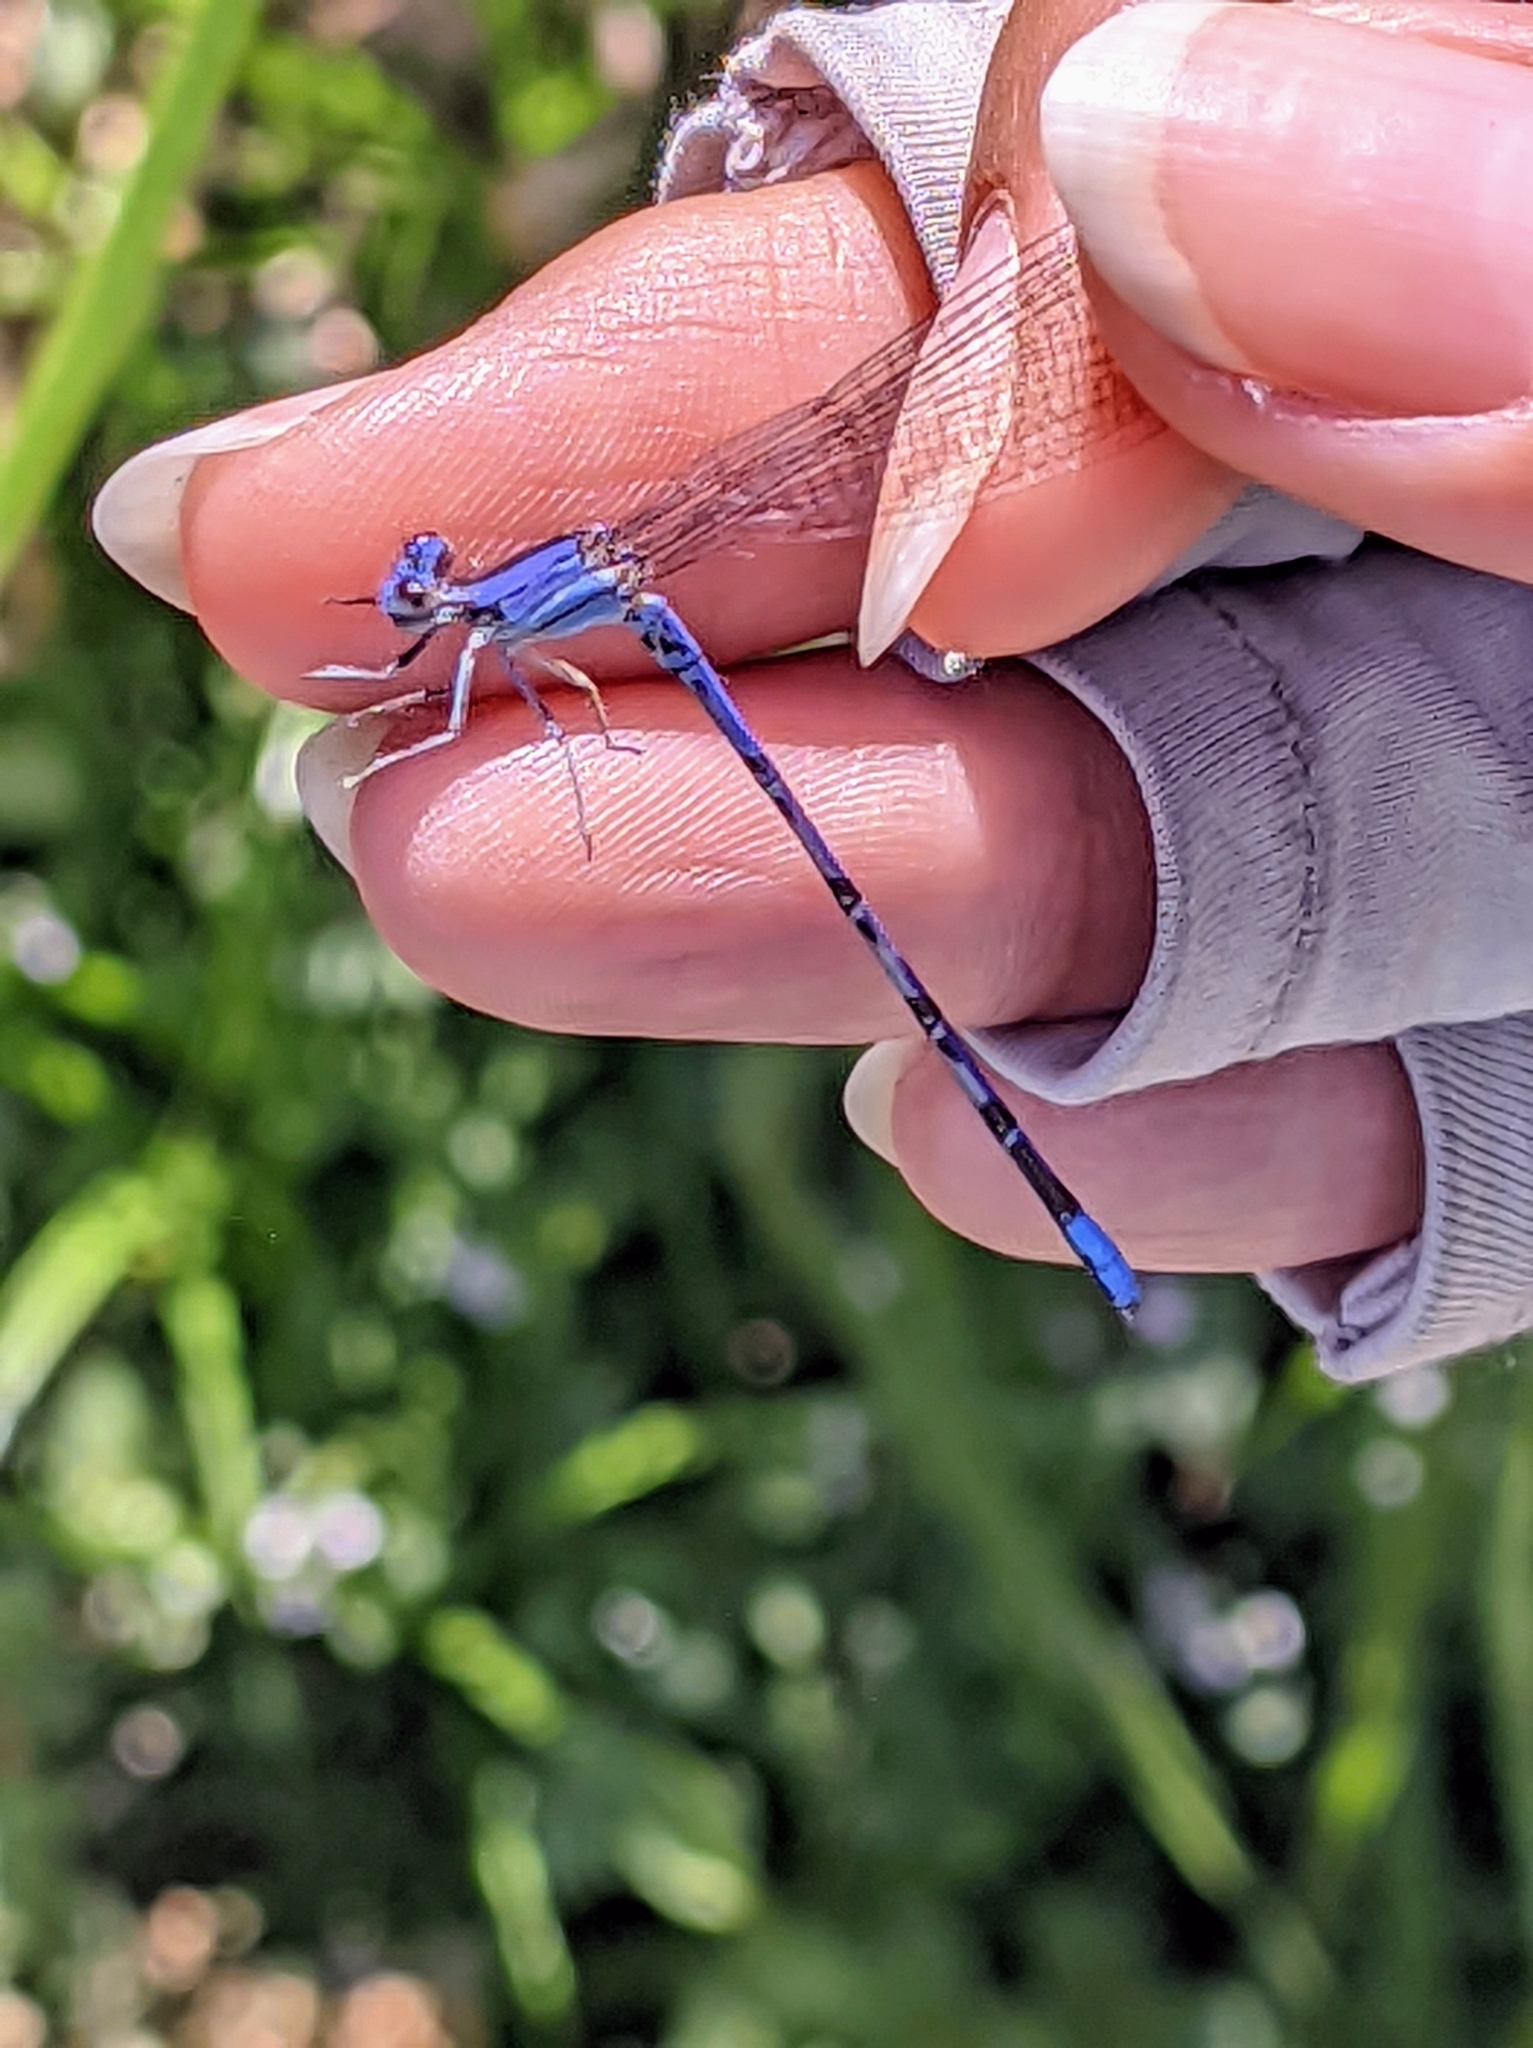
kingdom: Animalia
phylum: Arthropoda
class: Insecta
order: Odonata
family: Coenagrionidae
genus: Argia
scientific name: Argia extranea
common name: Spine-tipped dancer
